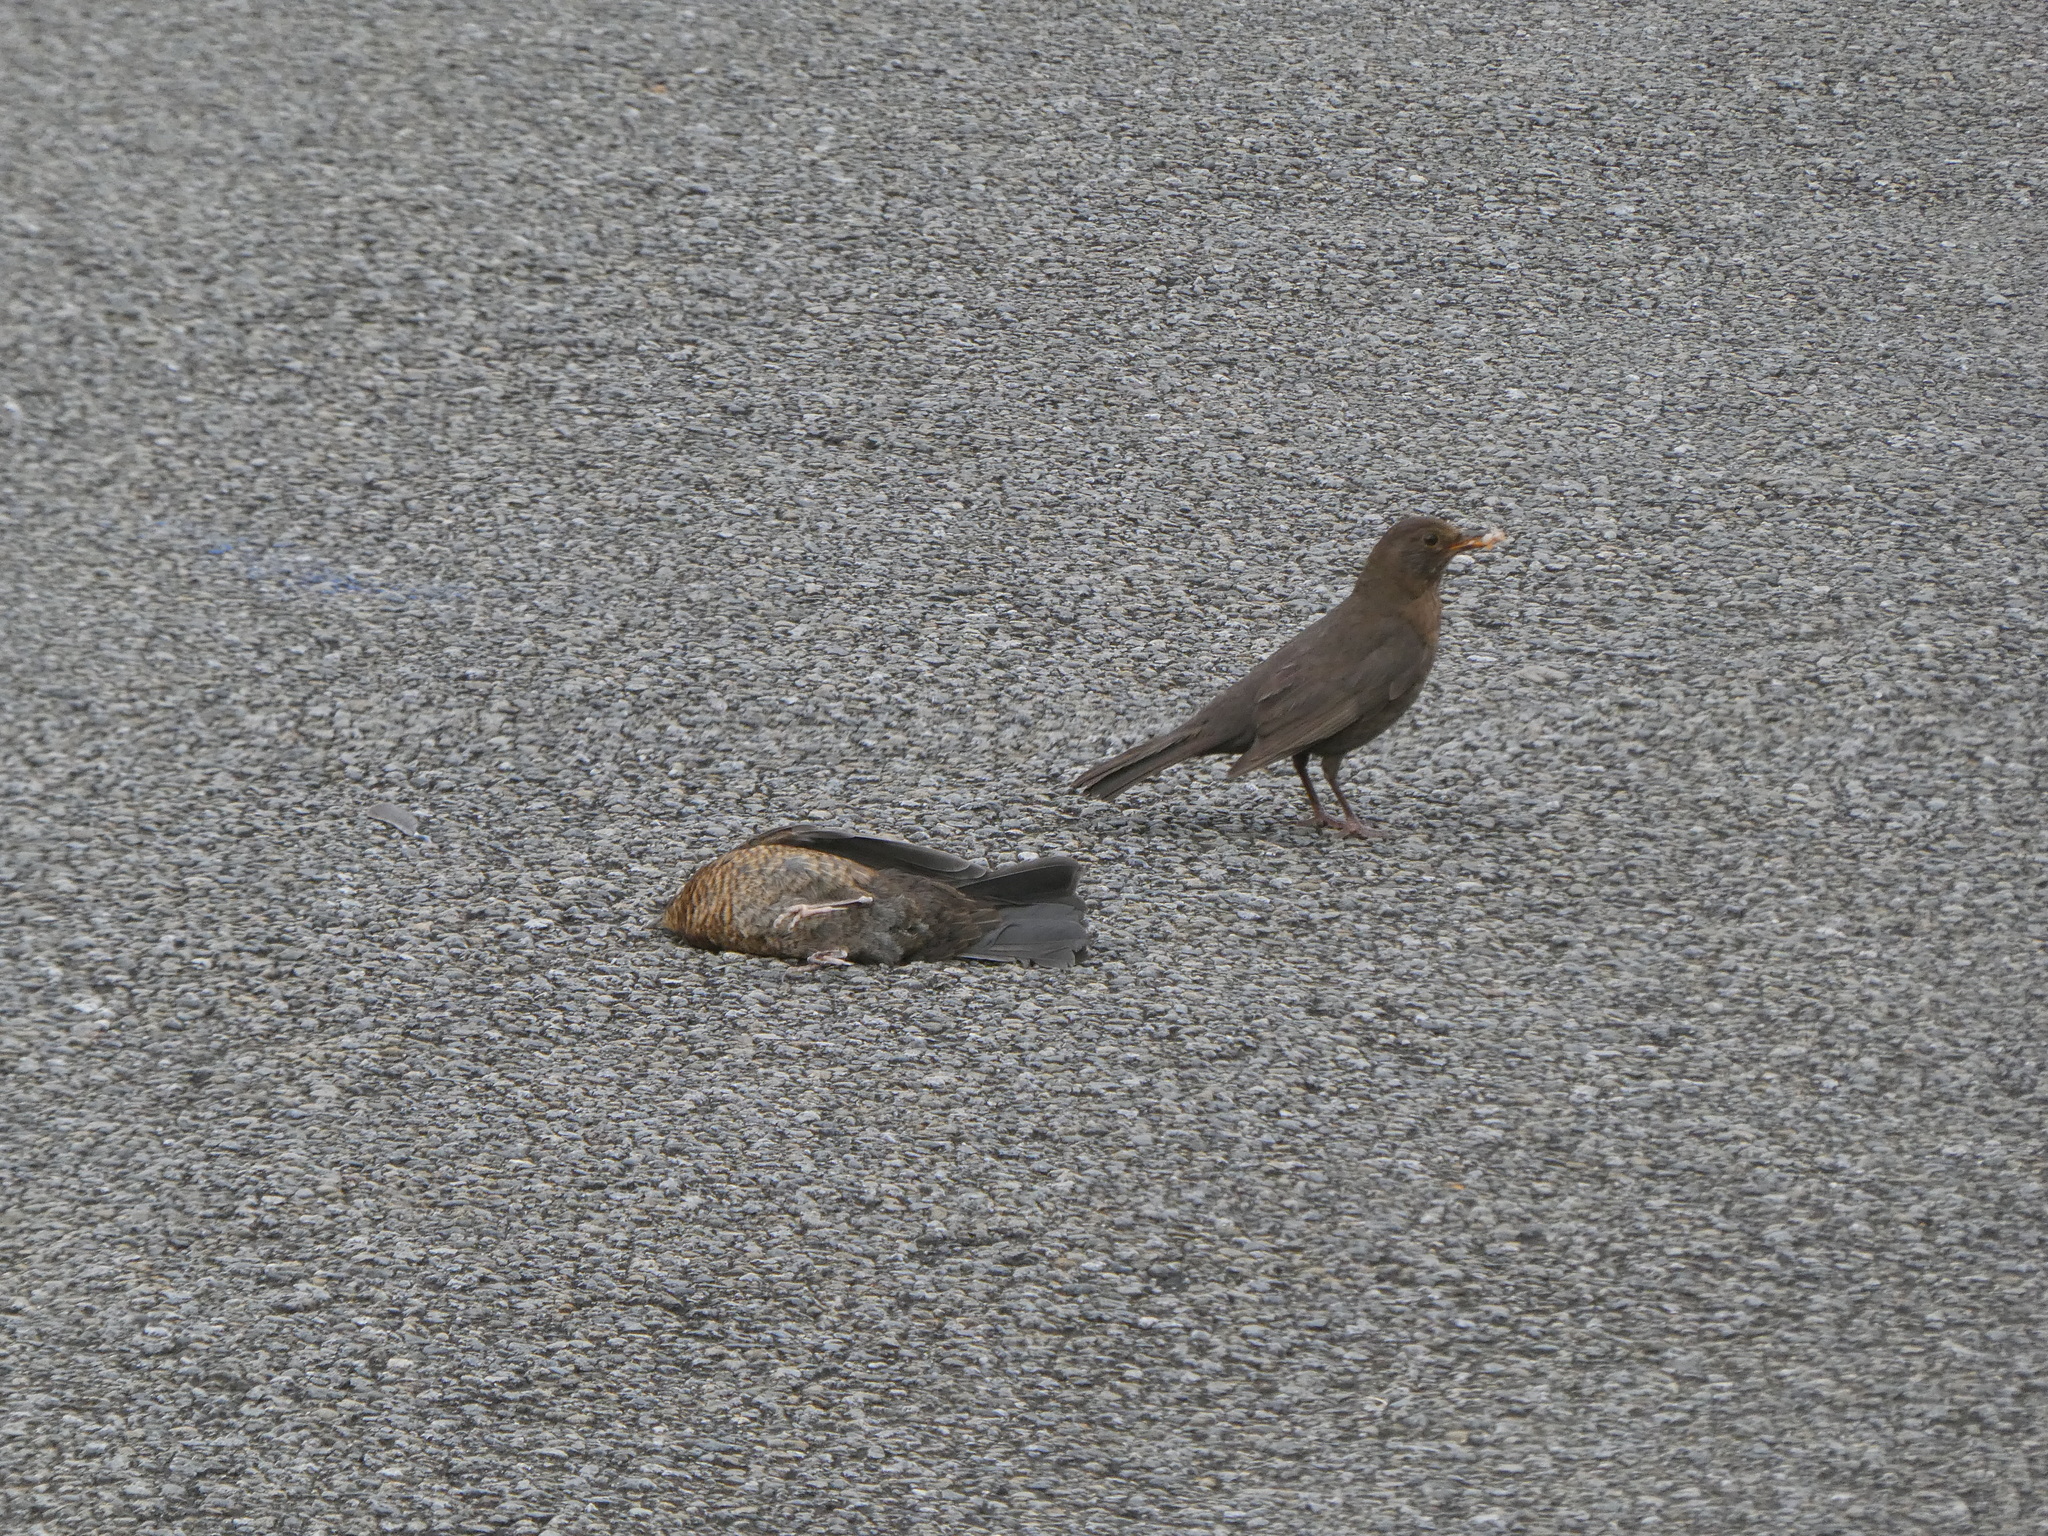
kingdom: Animalia
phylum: Chordata
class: Aves
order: Passeriformes
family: Turdidae
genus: Turdus
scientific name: Turdus merula
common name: Common blackbird
